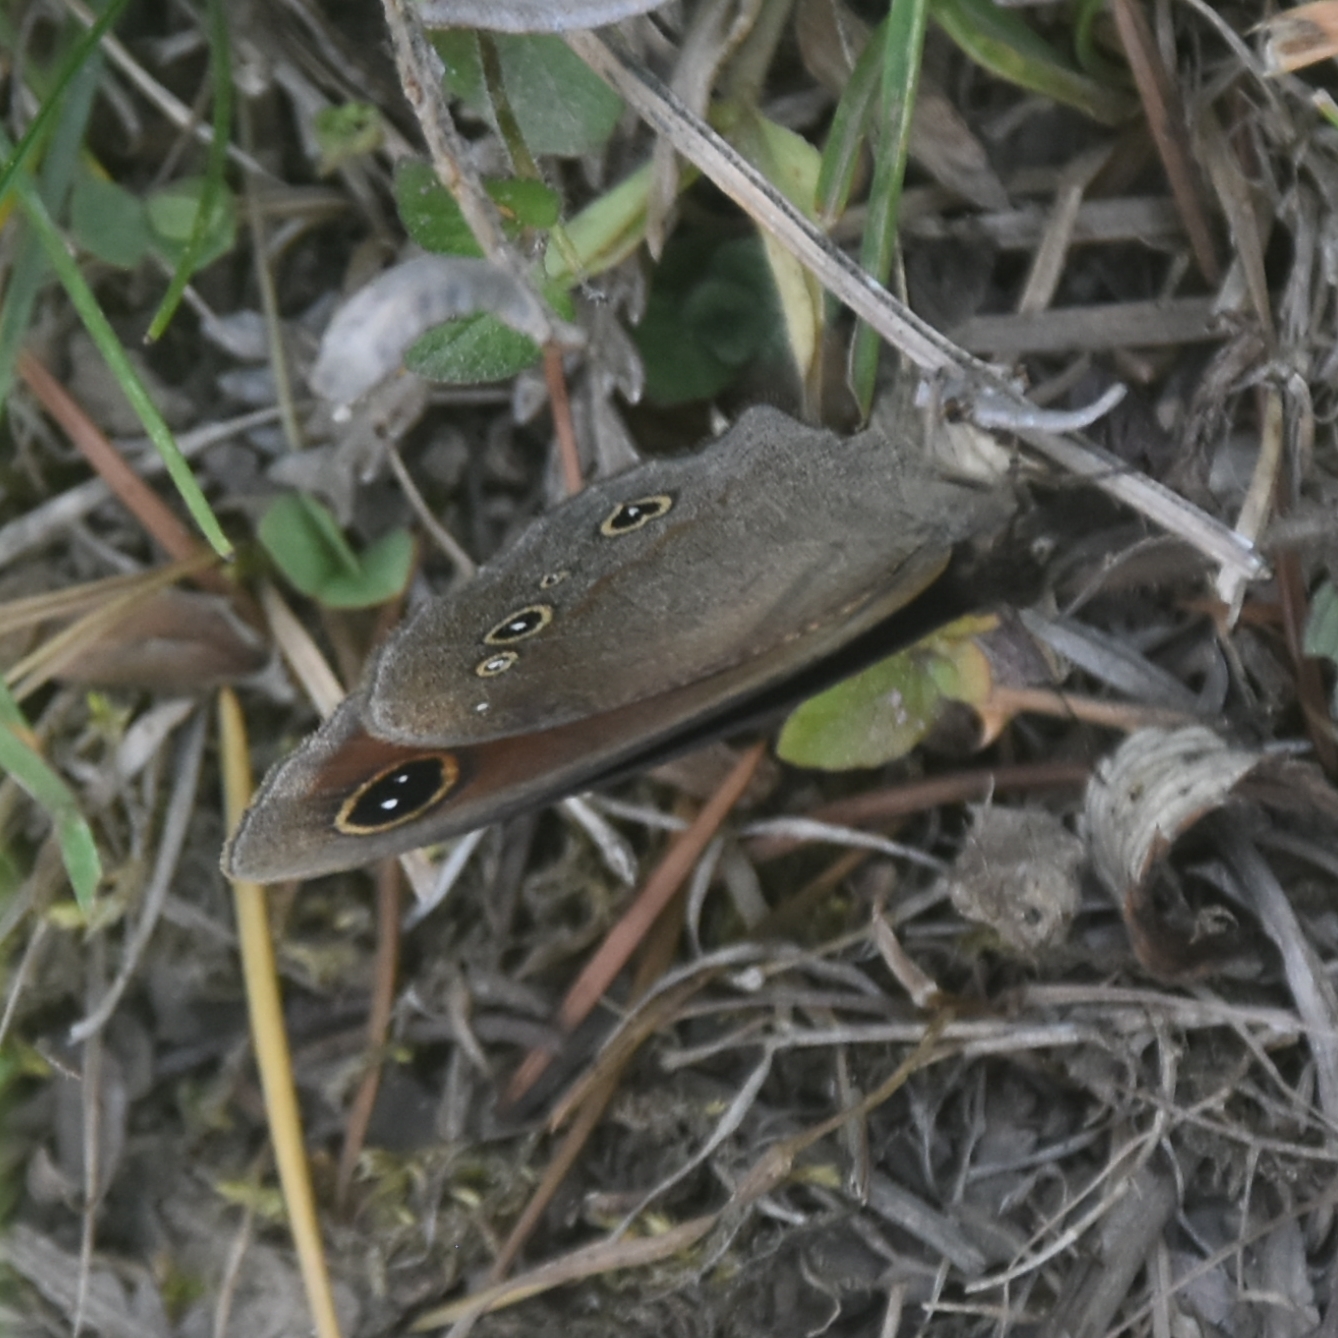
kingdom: Animalia
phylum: Arthropoda
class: Insecta
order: Lepidoptera
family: Nymphalidae
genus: Callerebia
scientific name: Callerebia nirmala
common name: Common argus
